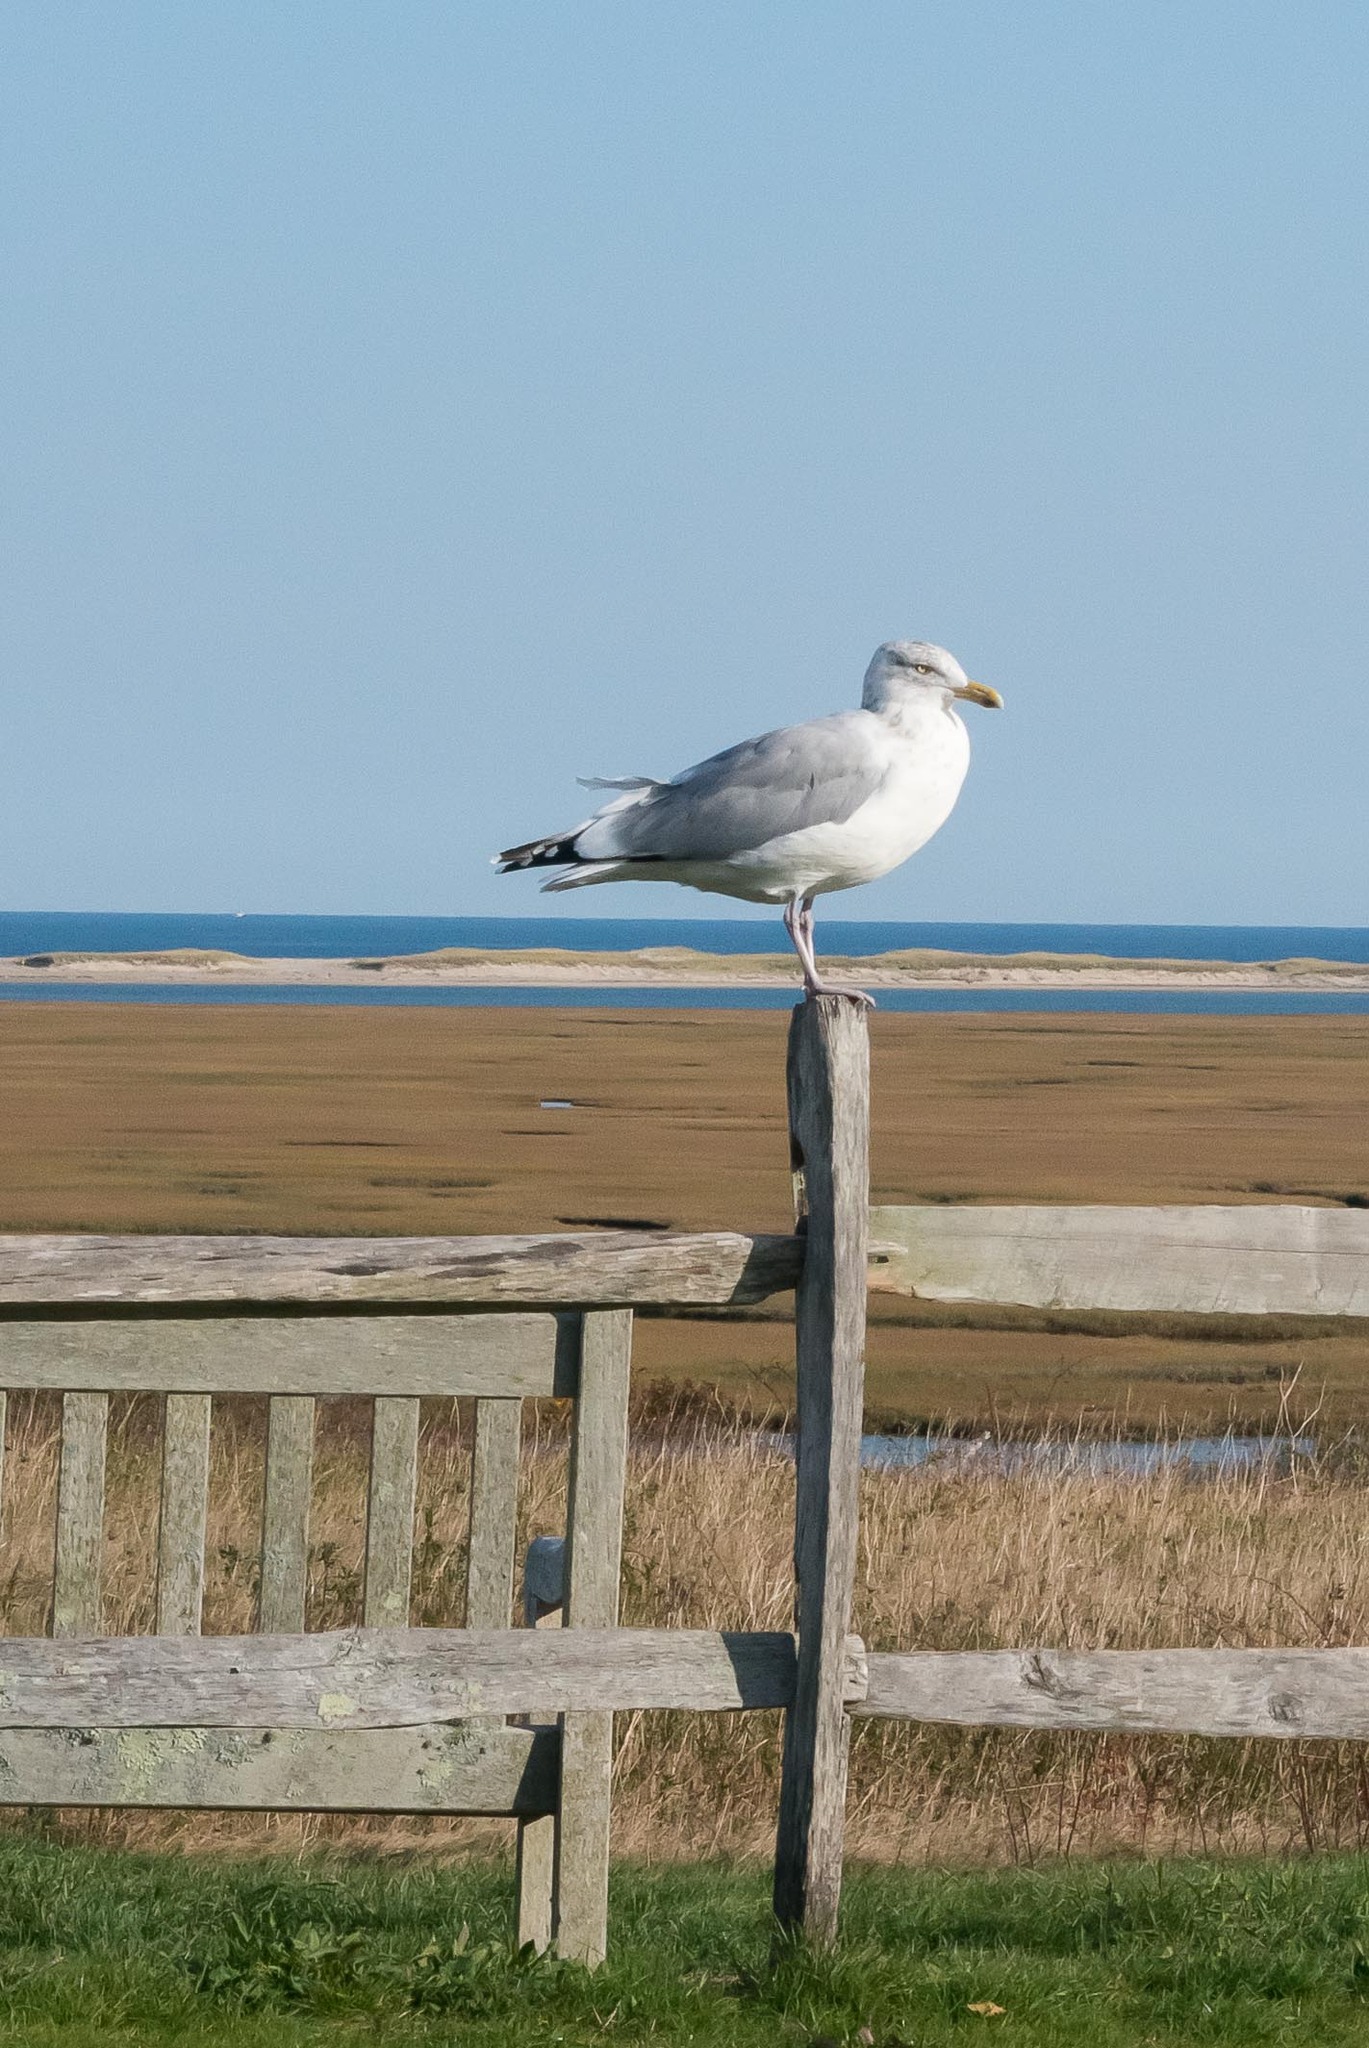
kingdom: Animalia
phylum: Chordata
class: Aves
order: Charadriiformes
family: Laridae
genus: Larus
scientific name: Larus argentatus
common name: Herring gull
